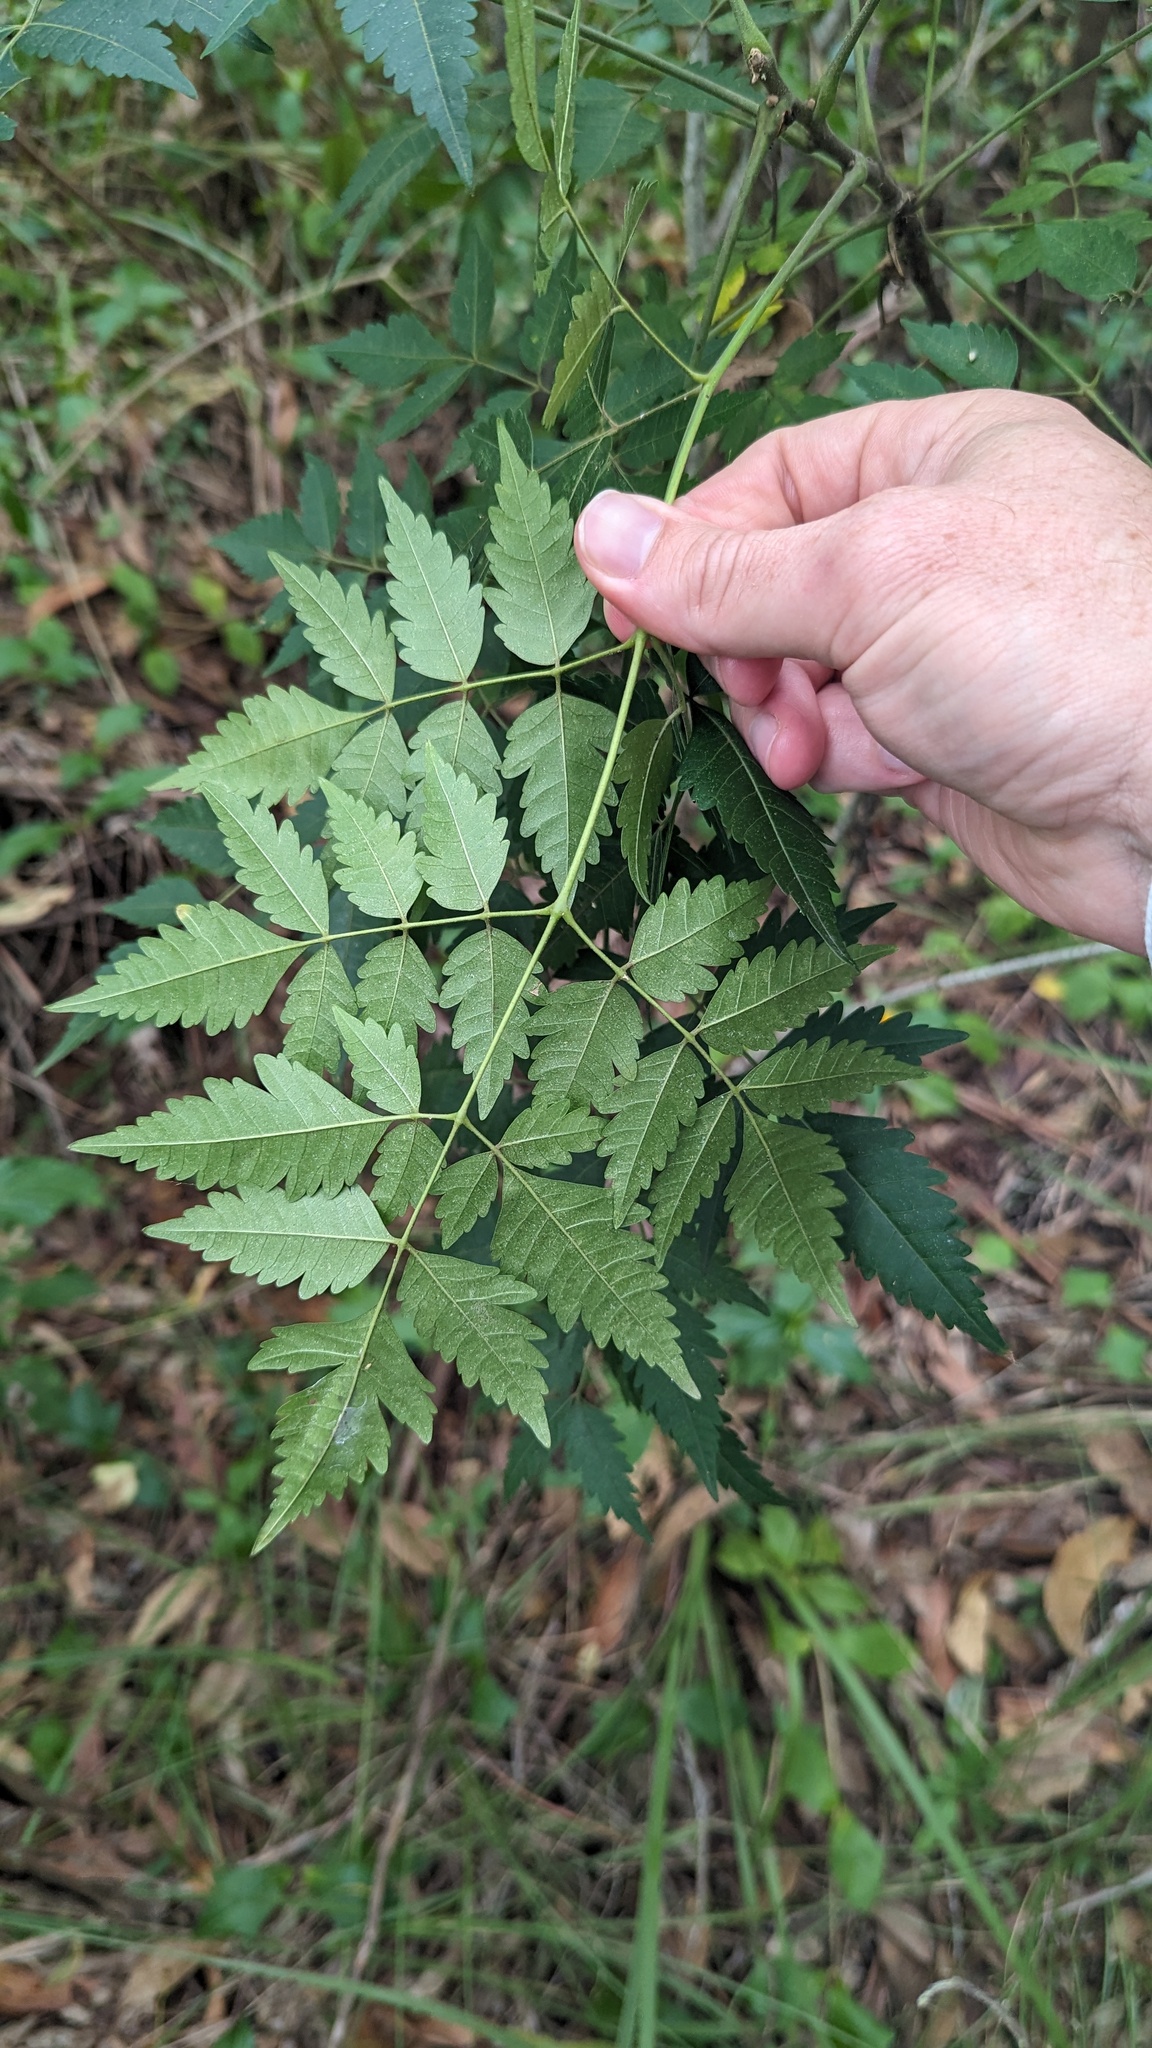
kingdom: Plantae
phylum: Tracheophyta
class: Magnoliopsida
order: Sapindales
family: Meliaceae
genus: Melia
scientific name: Melia azedarach
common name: Chinaberrytree
